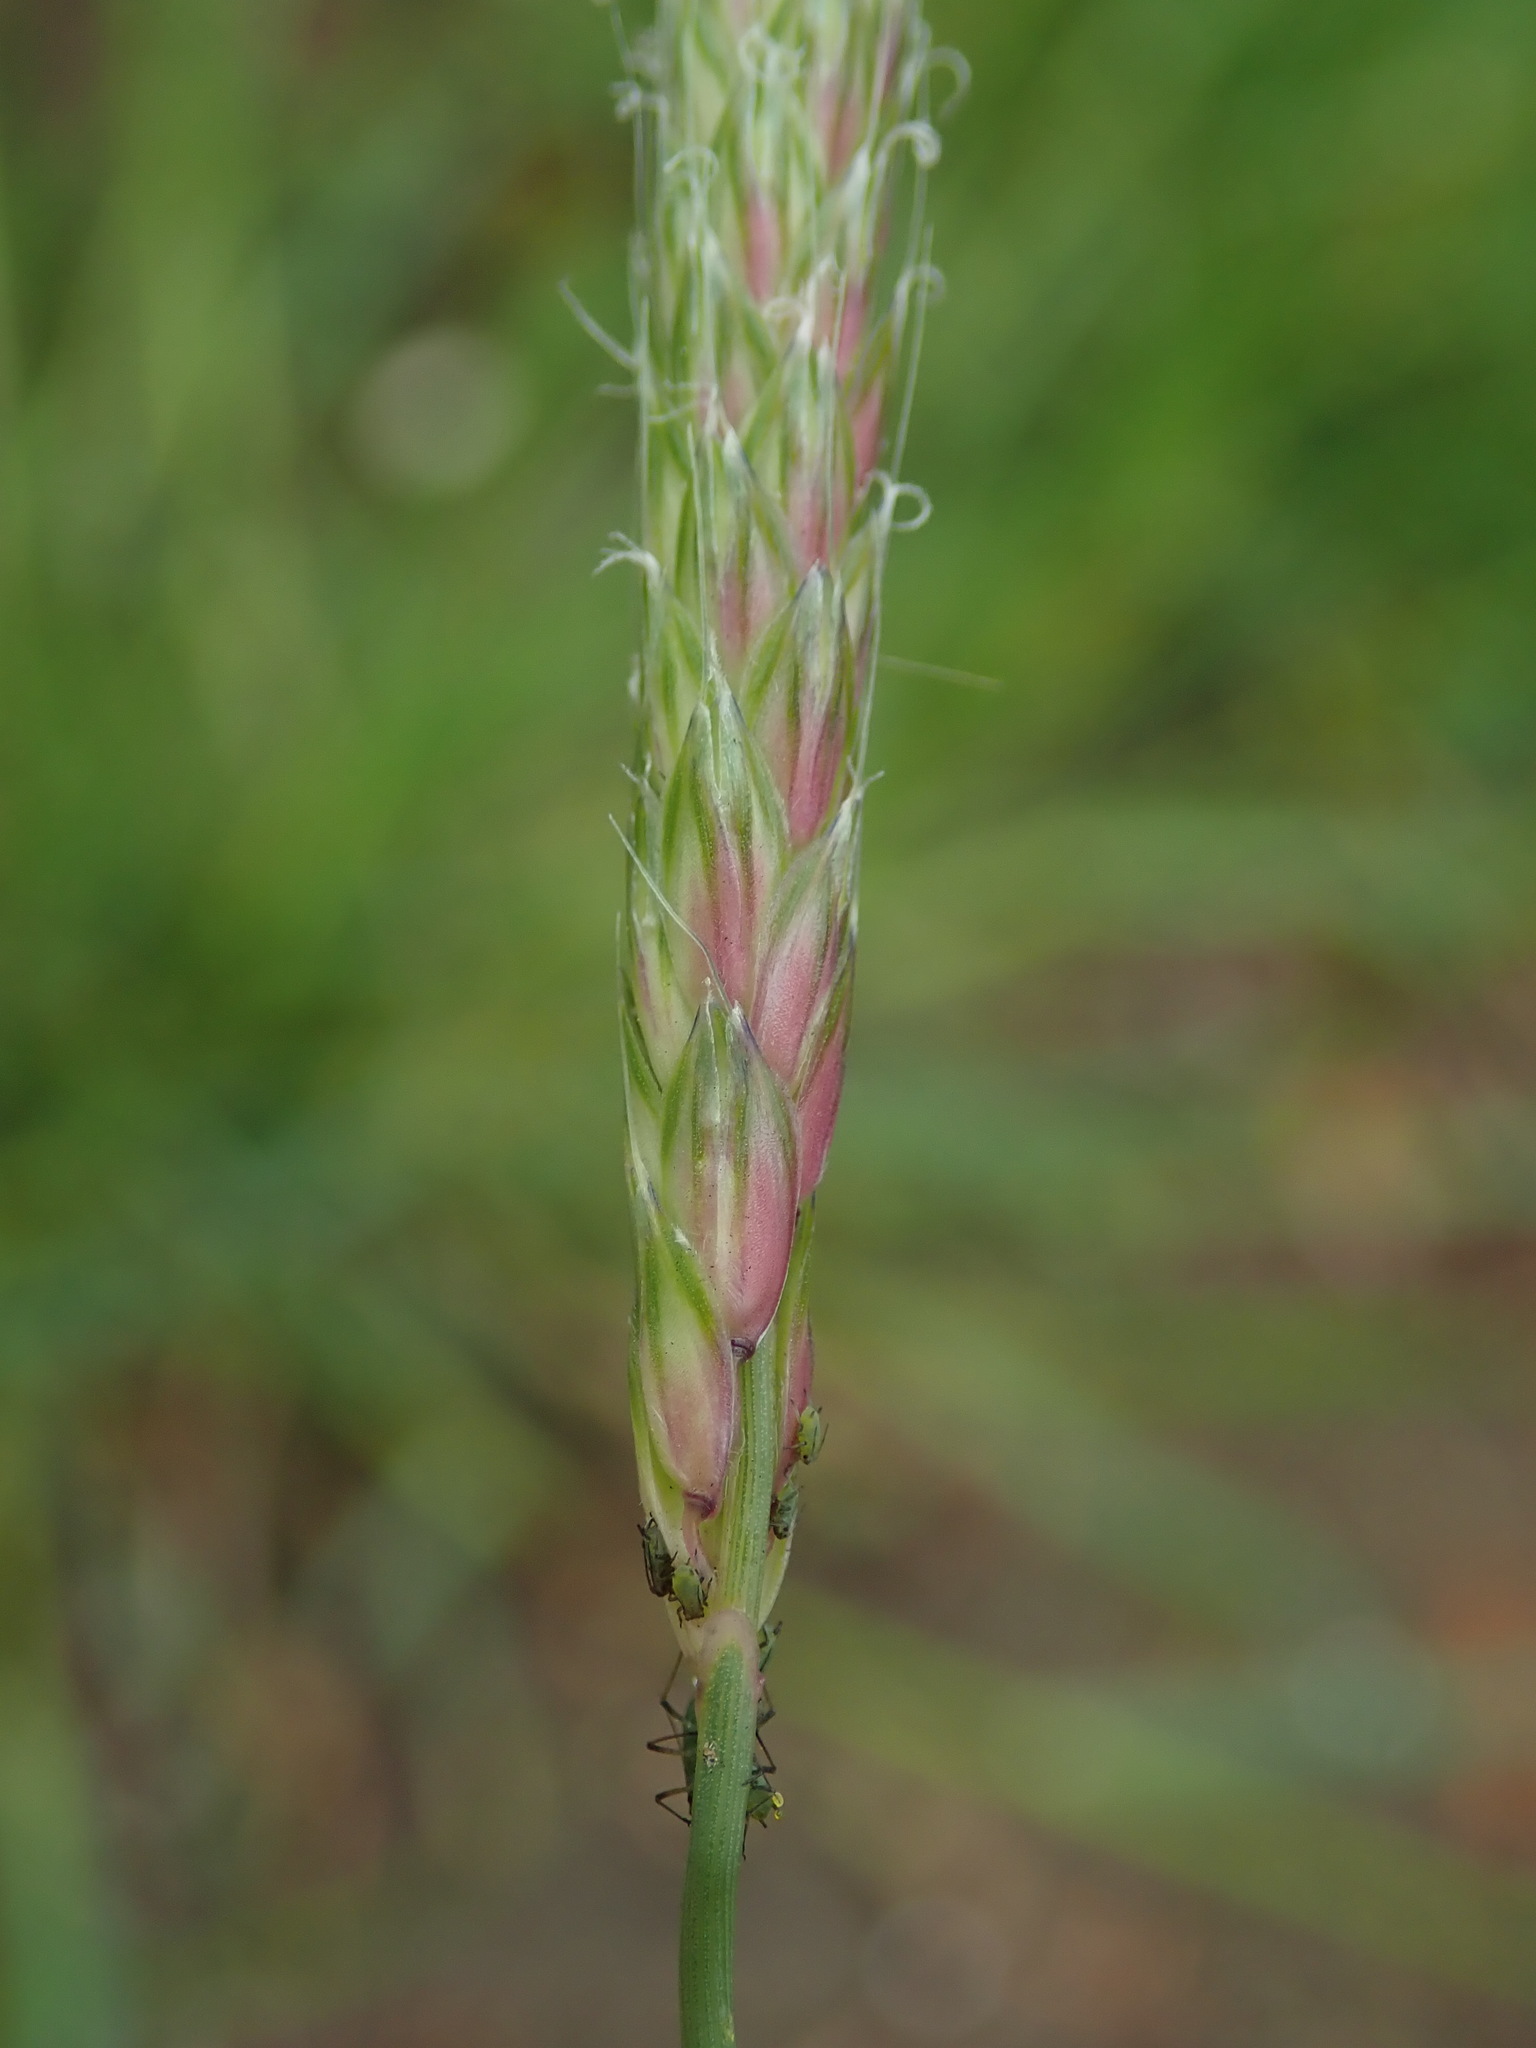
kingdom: Plantae
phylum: Tracheophyta
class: Liliopsida
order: Poales
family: Poaceae
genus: Alopecurus
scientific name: Alopecurus myosuroides
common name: Black-grass
